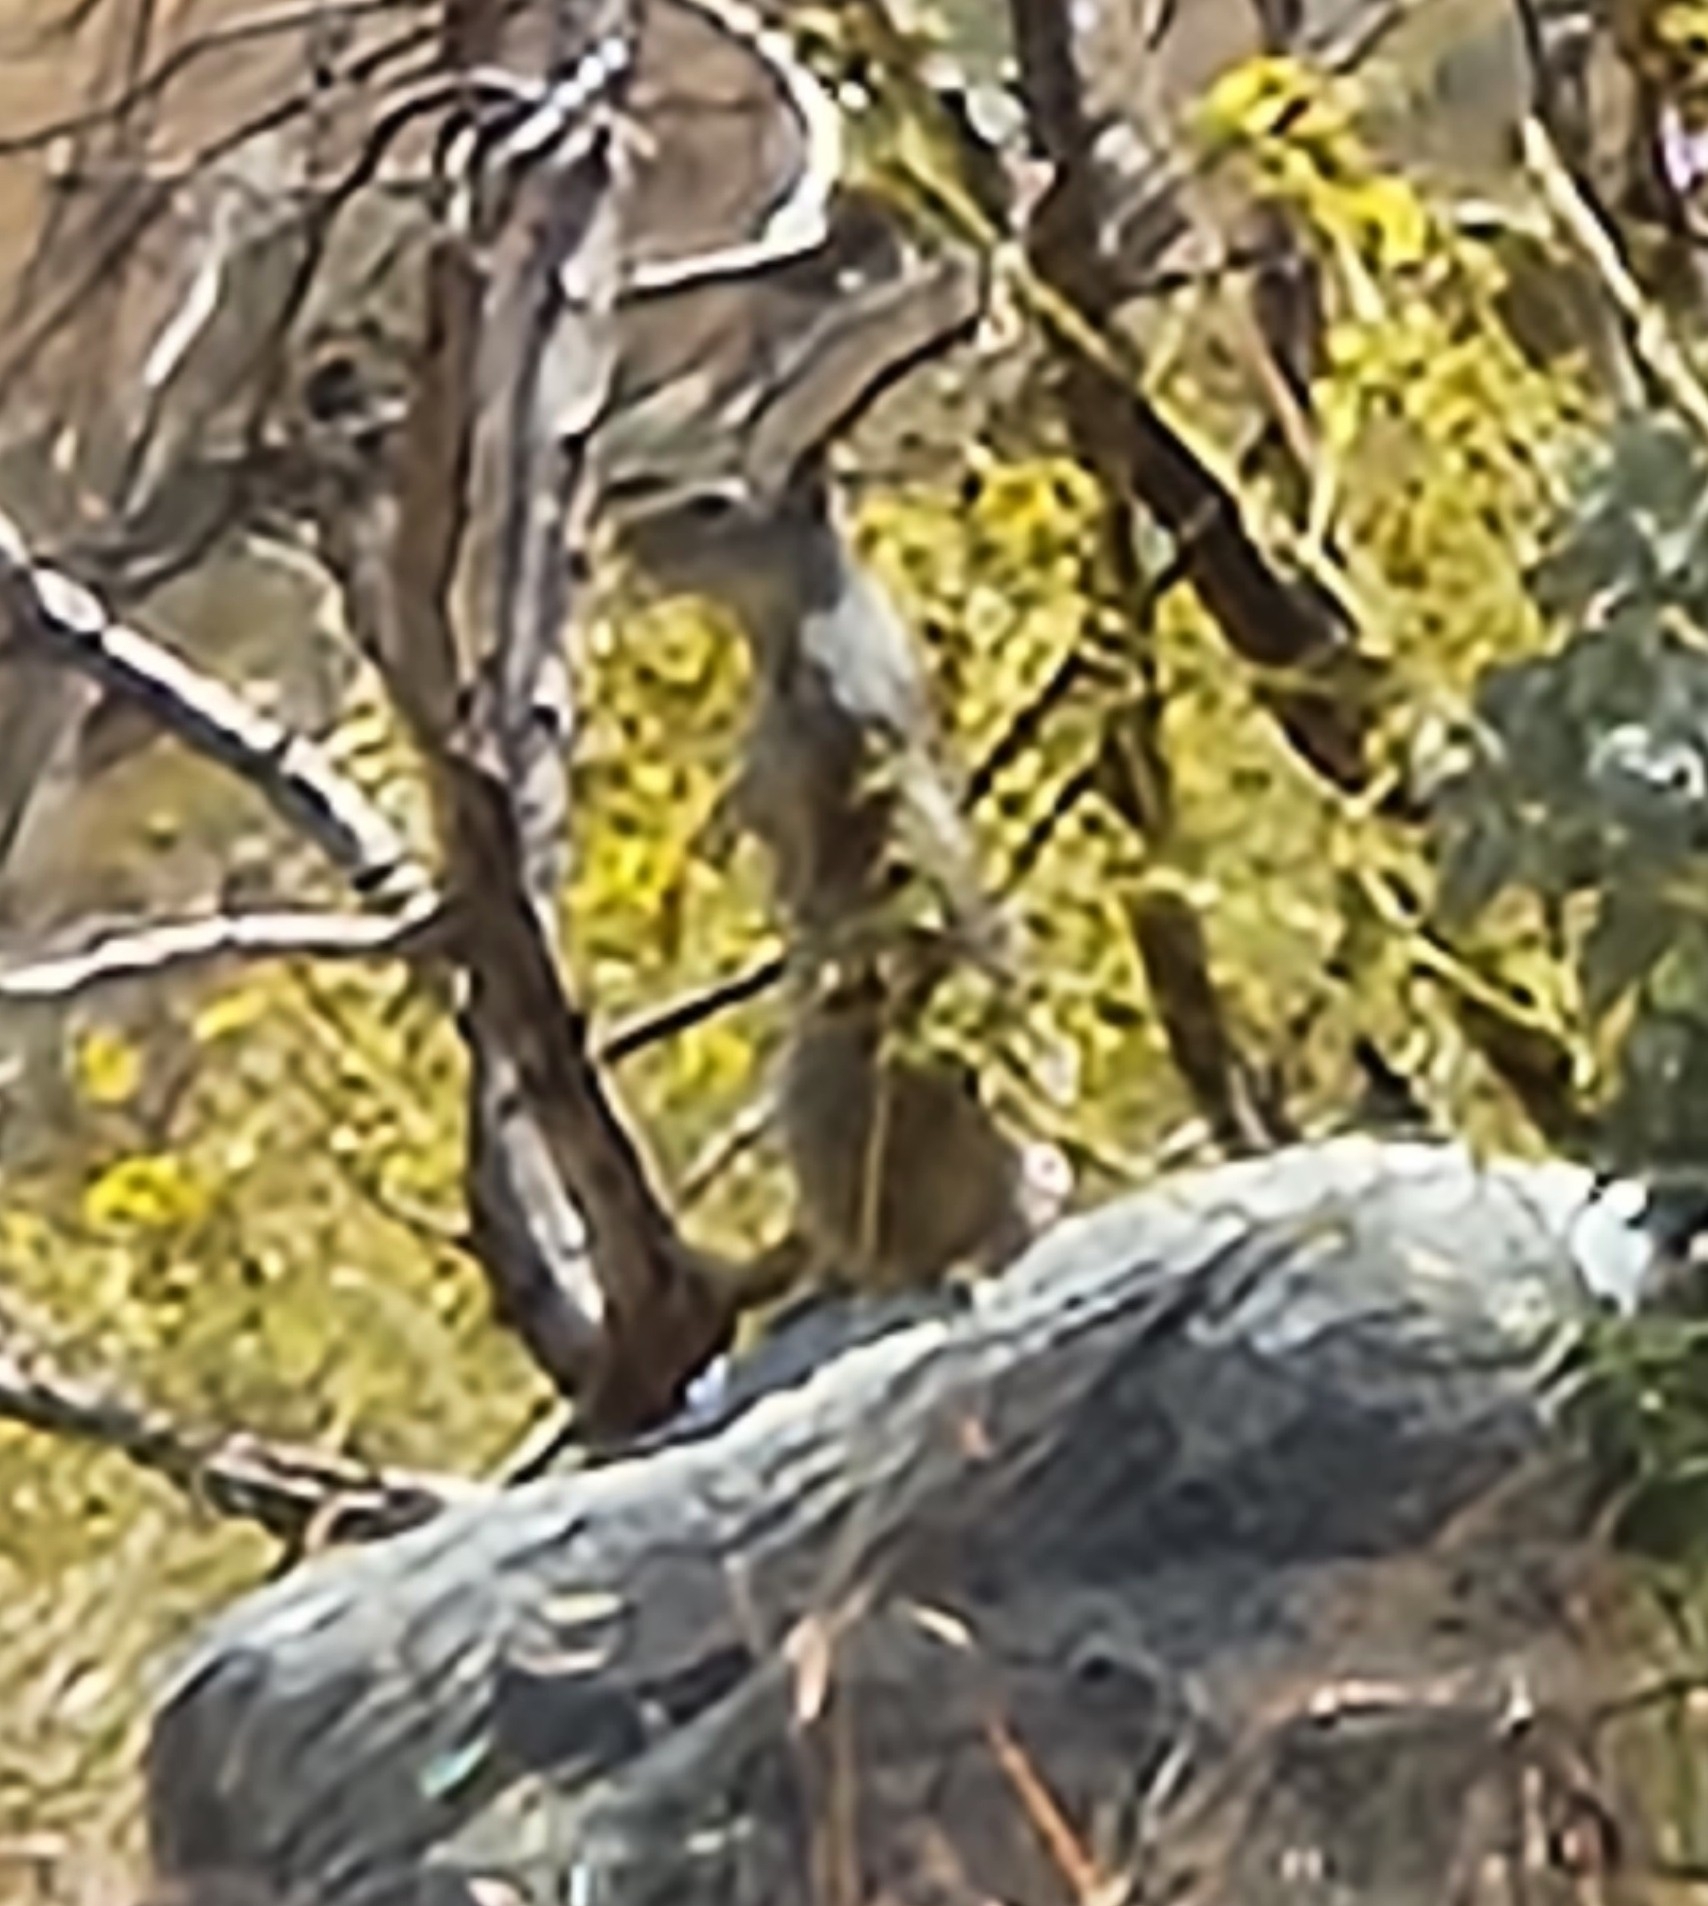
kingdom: Animalia
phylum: Chordata
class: Mammalia
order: Rodentia
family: Sciuridae
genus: Otospermophilus
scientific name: Otospermophilus beecheyi
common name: California ground squirrel
